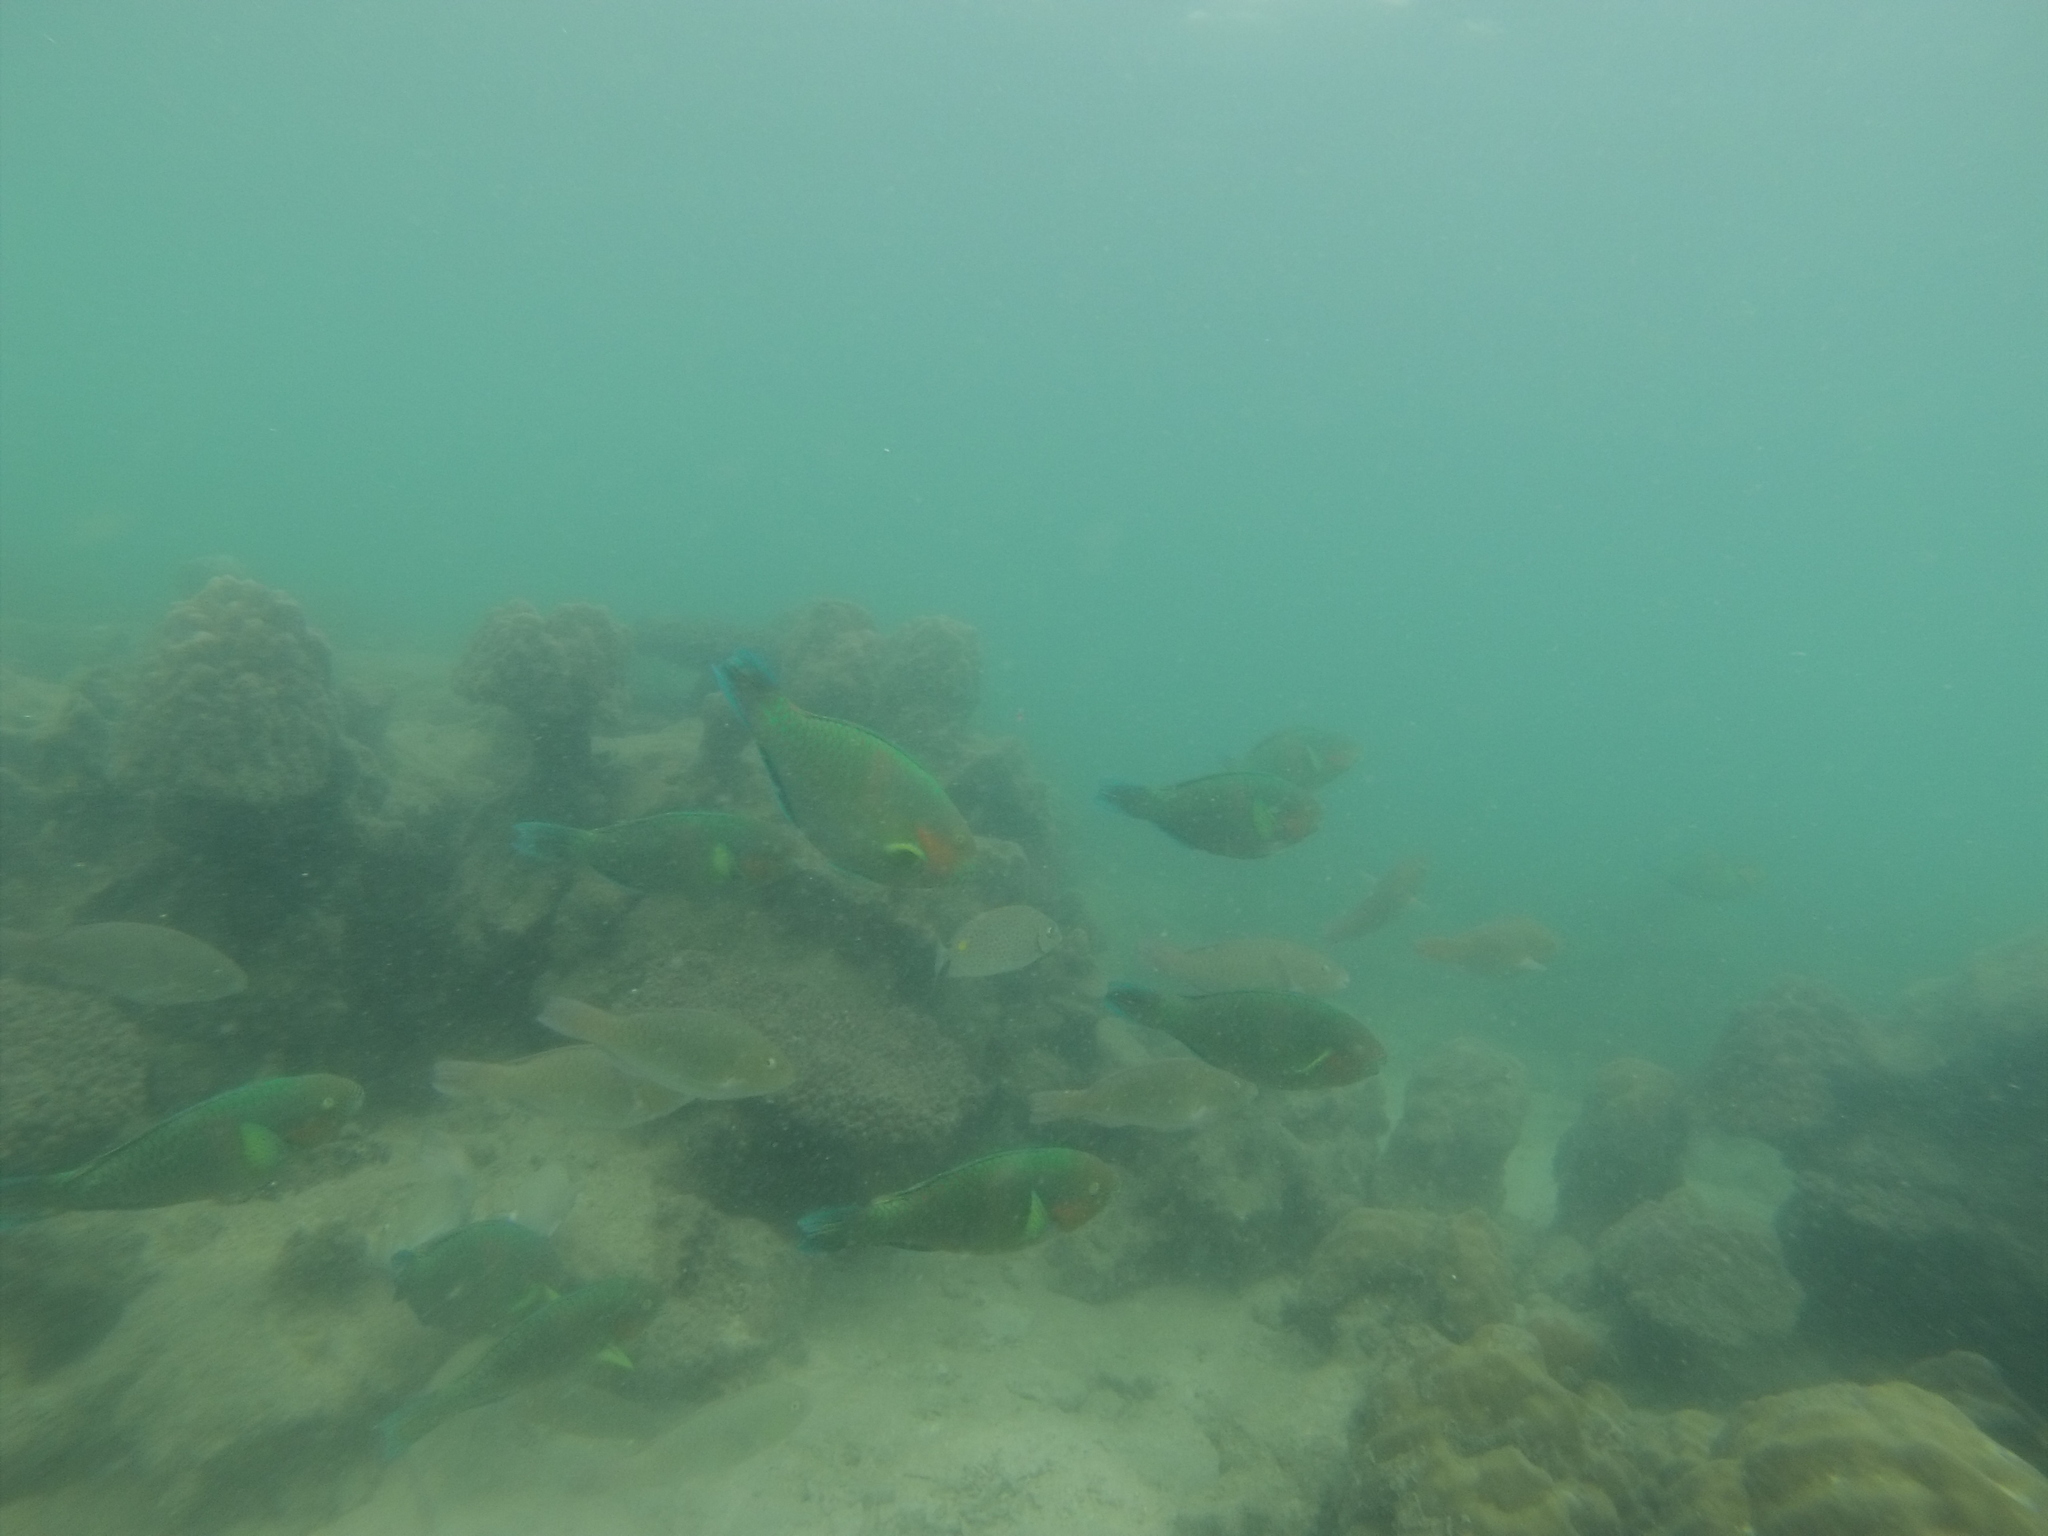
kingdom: Animalia
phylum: Chordata
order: Perciformes
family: Scaridae
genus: Scarus
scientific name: Scarus rivulatus
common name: Surf parrotfish
